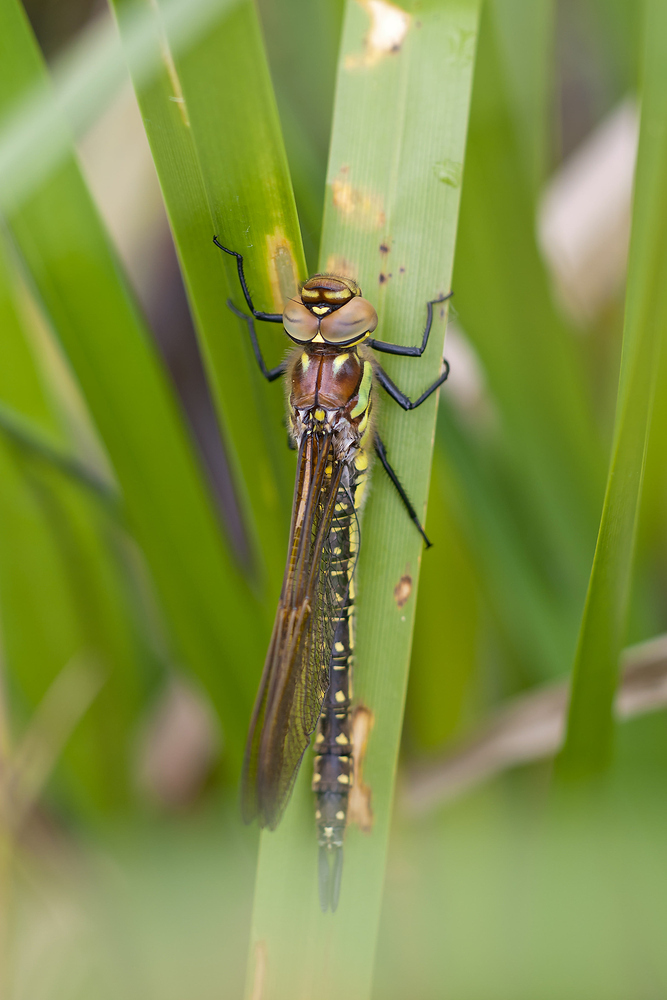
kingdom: Animalia
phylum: Arthropoda
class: Insecta
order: Odonata
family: Aeshnidae
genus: Brachytron
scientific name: Brachytron pratense
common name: Hairy hawker
